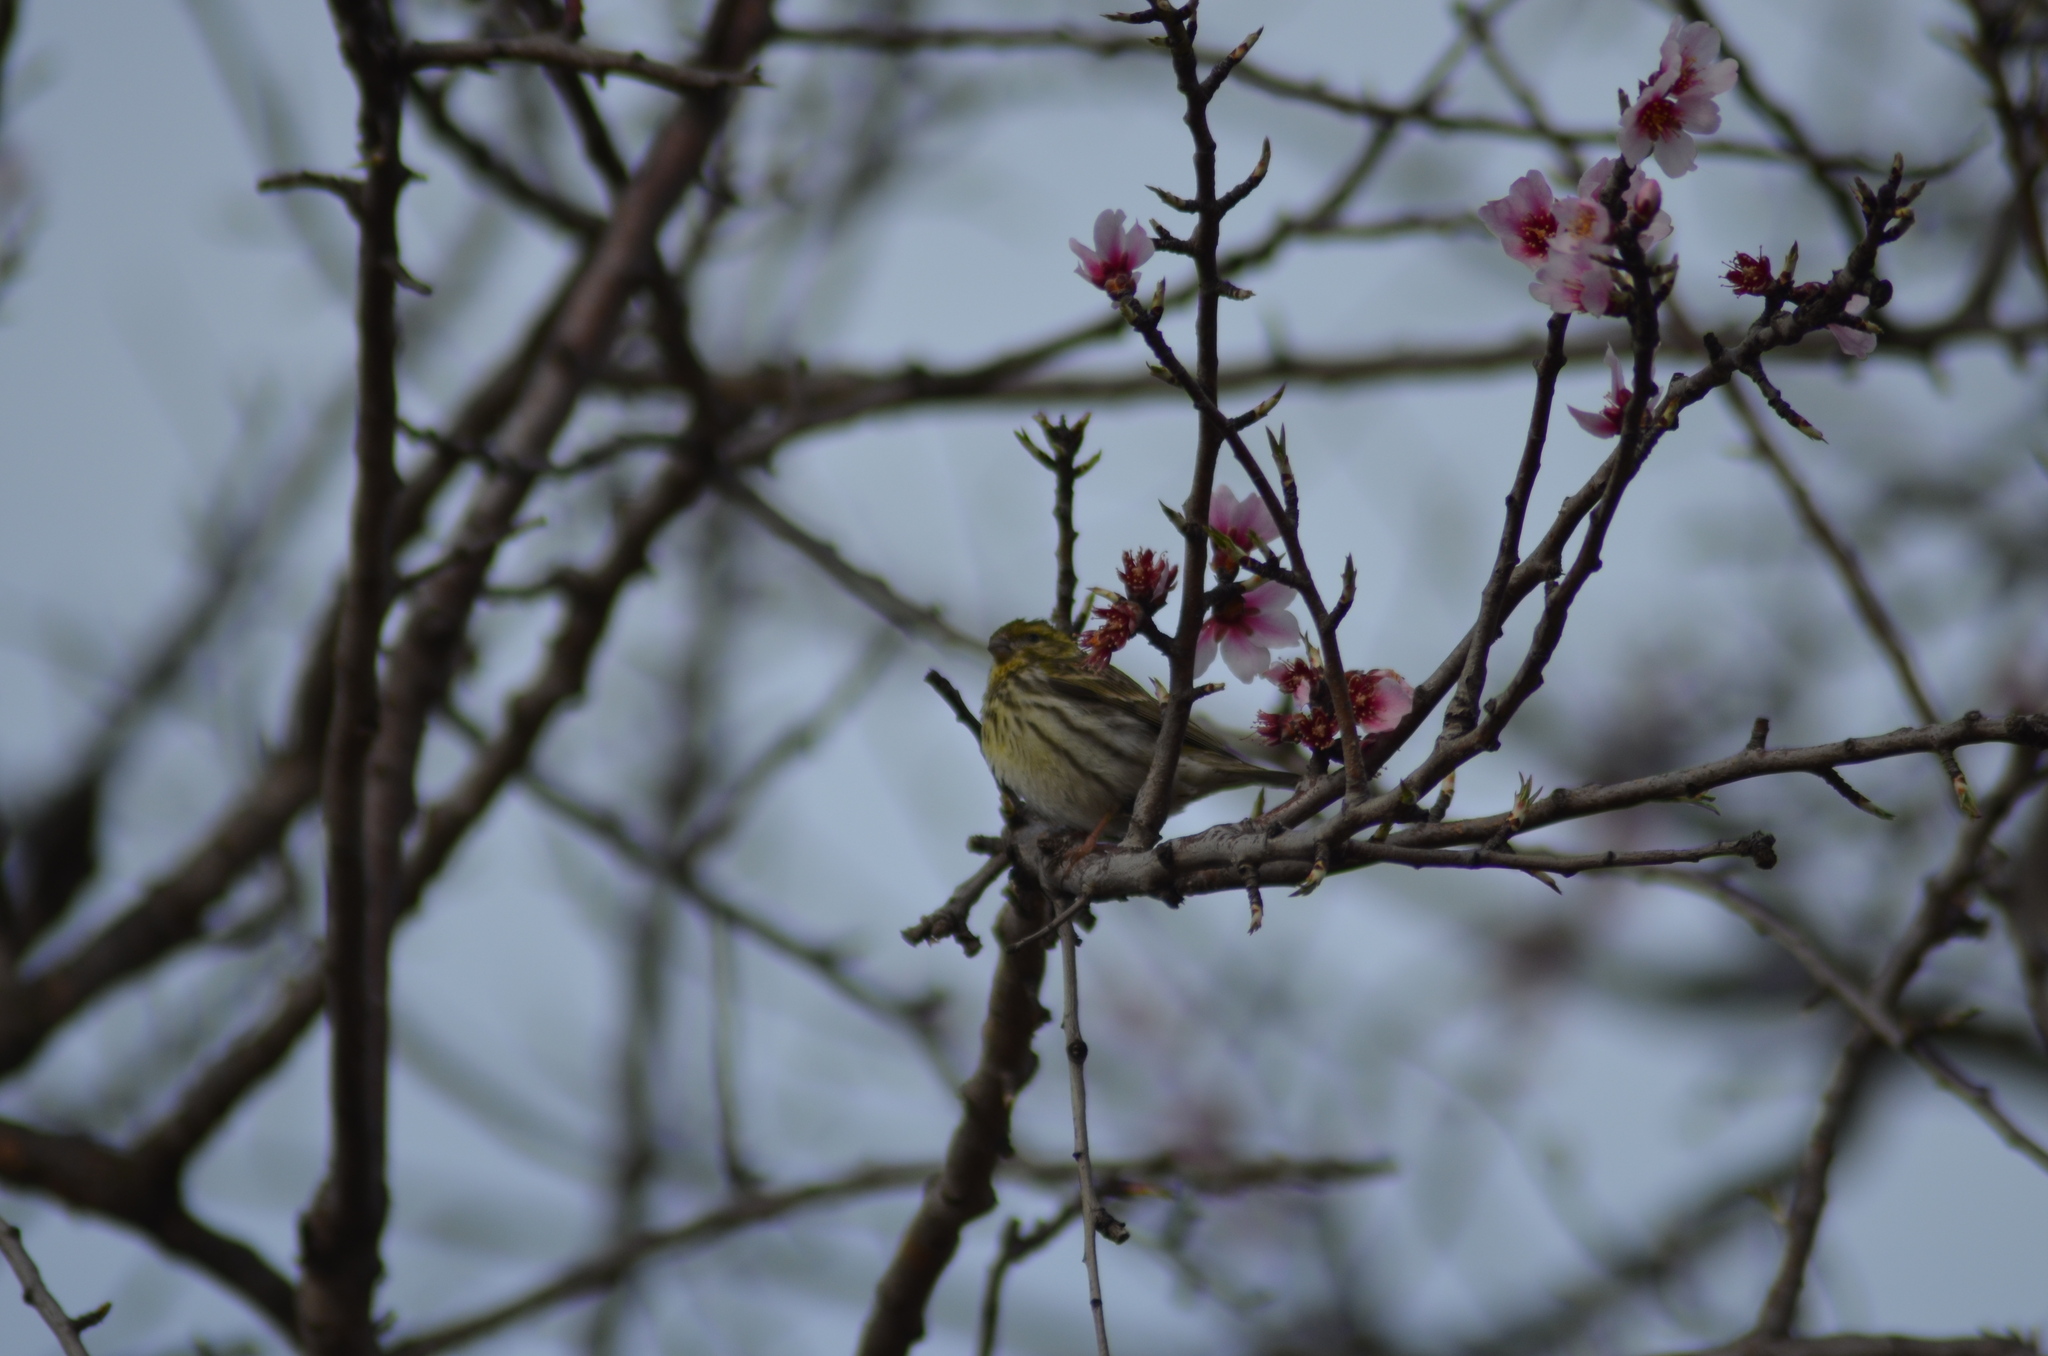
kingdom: Animalia
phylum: Chordata
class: Aves
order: Passeriformes
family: Fringillidae
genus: Serinus
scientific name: Serinus serinus
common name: European serin
